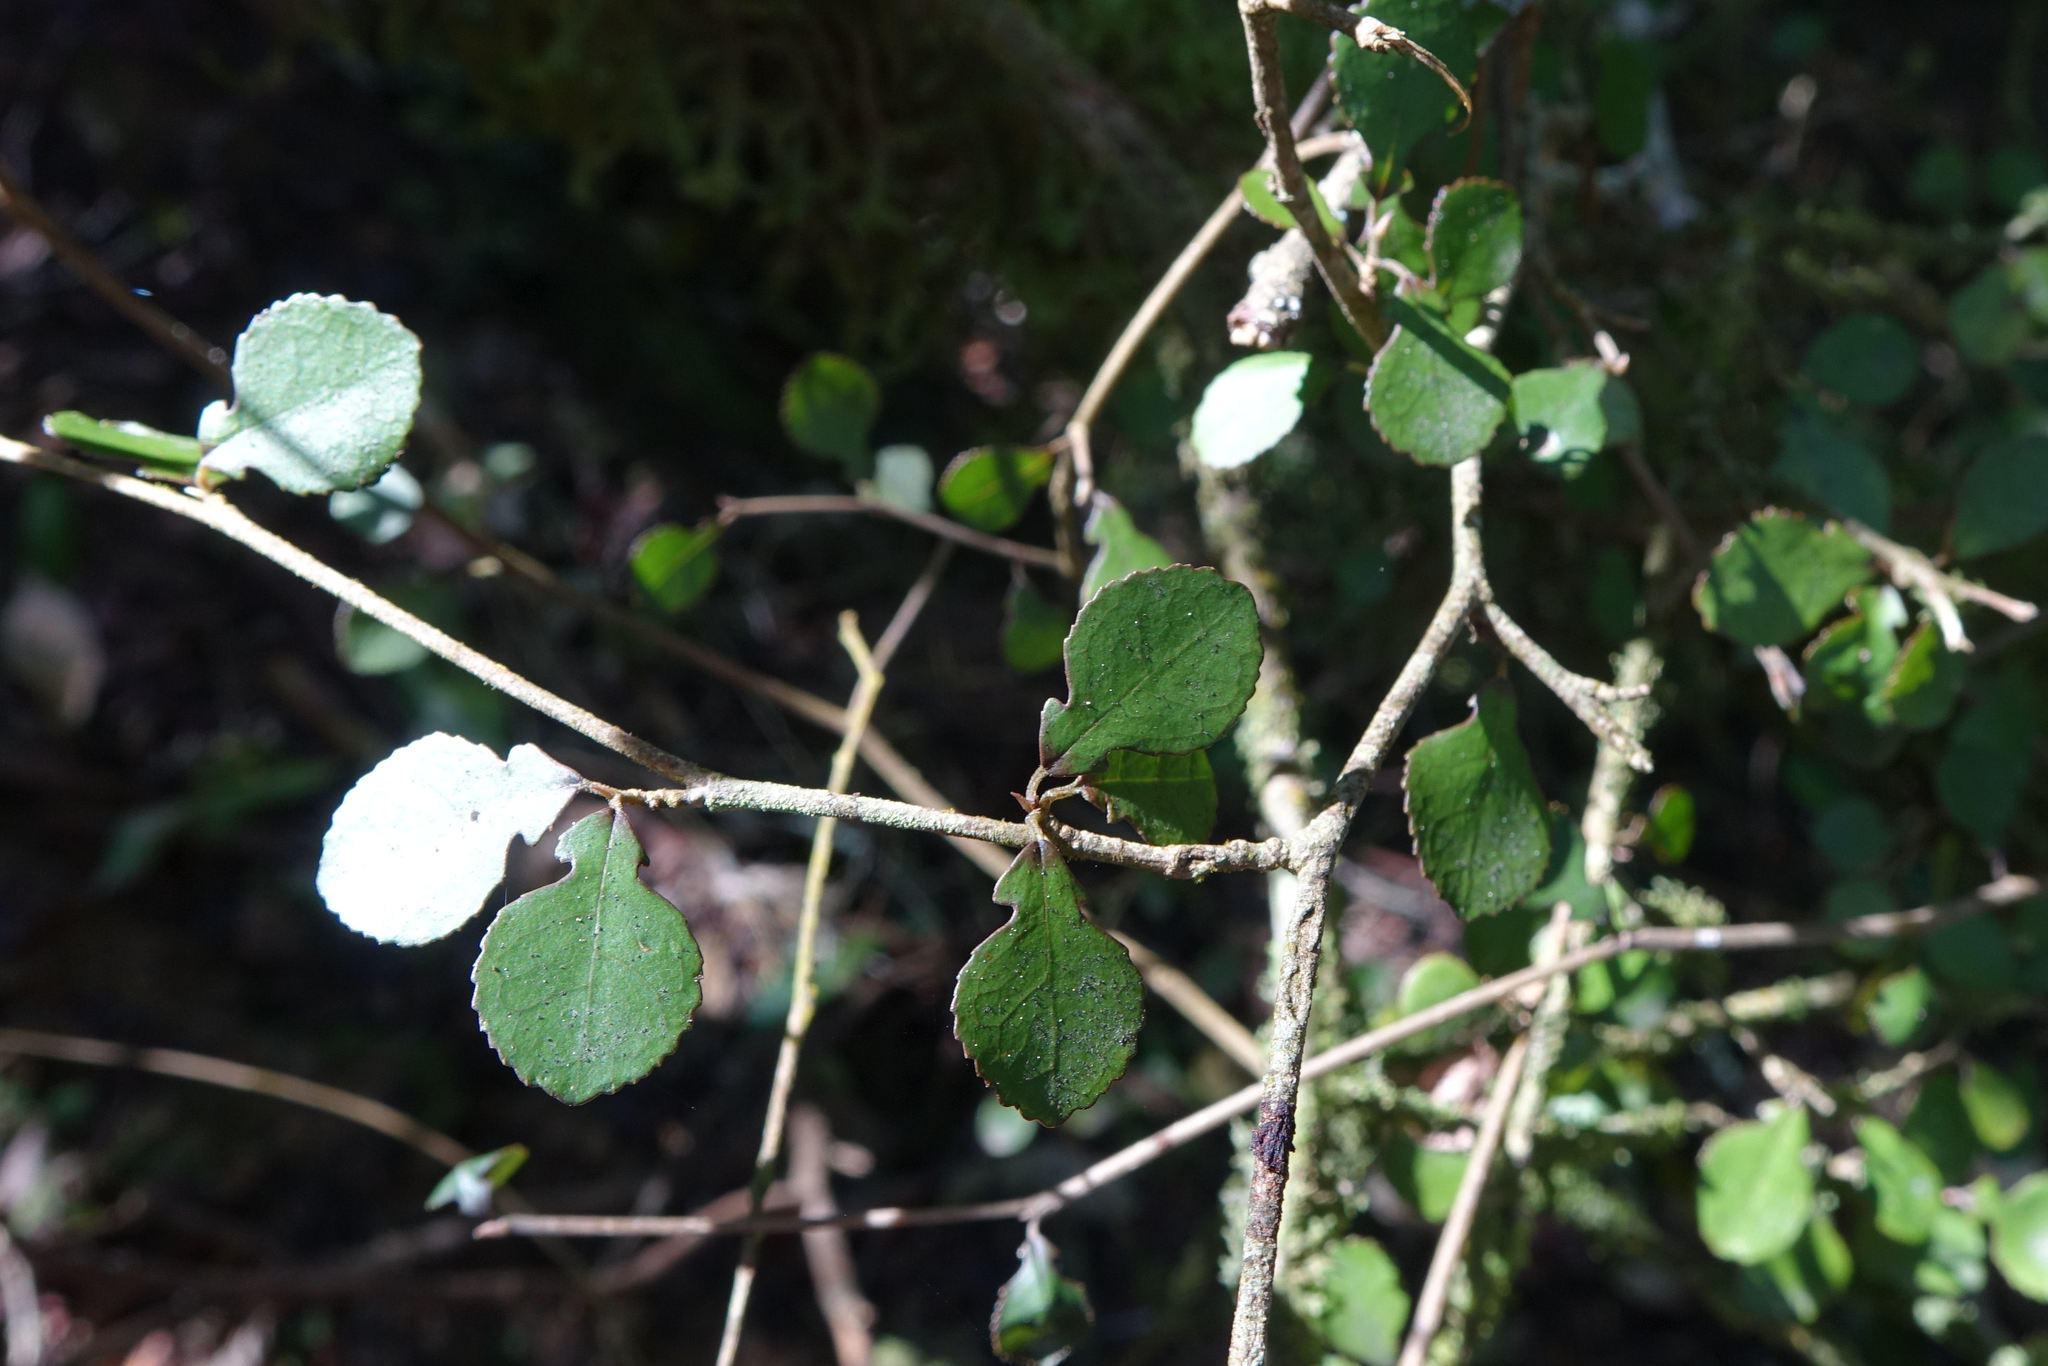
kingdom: Plantae
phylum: Tracheophyta
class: Magnoliopsida
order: Rosales
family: Moraceae
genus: Paratrophis
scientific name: Paratrophis microphylla
